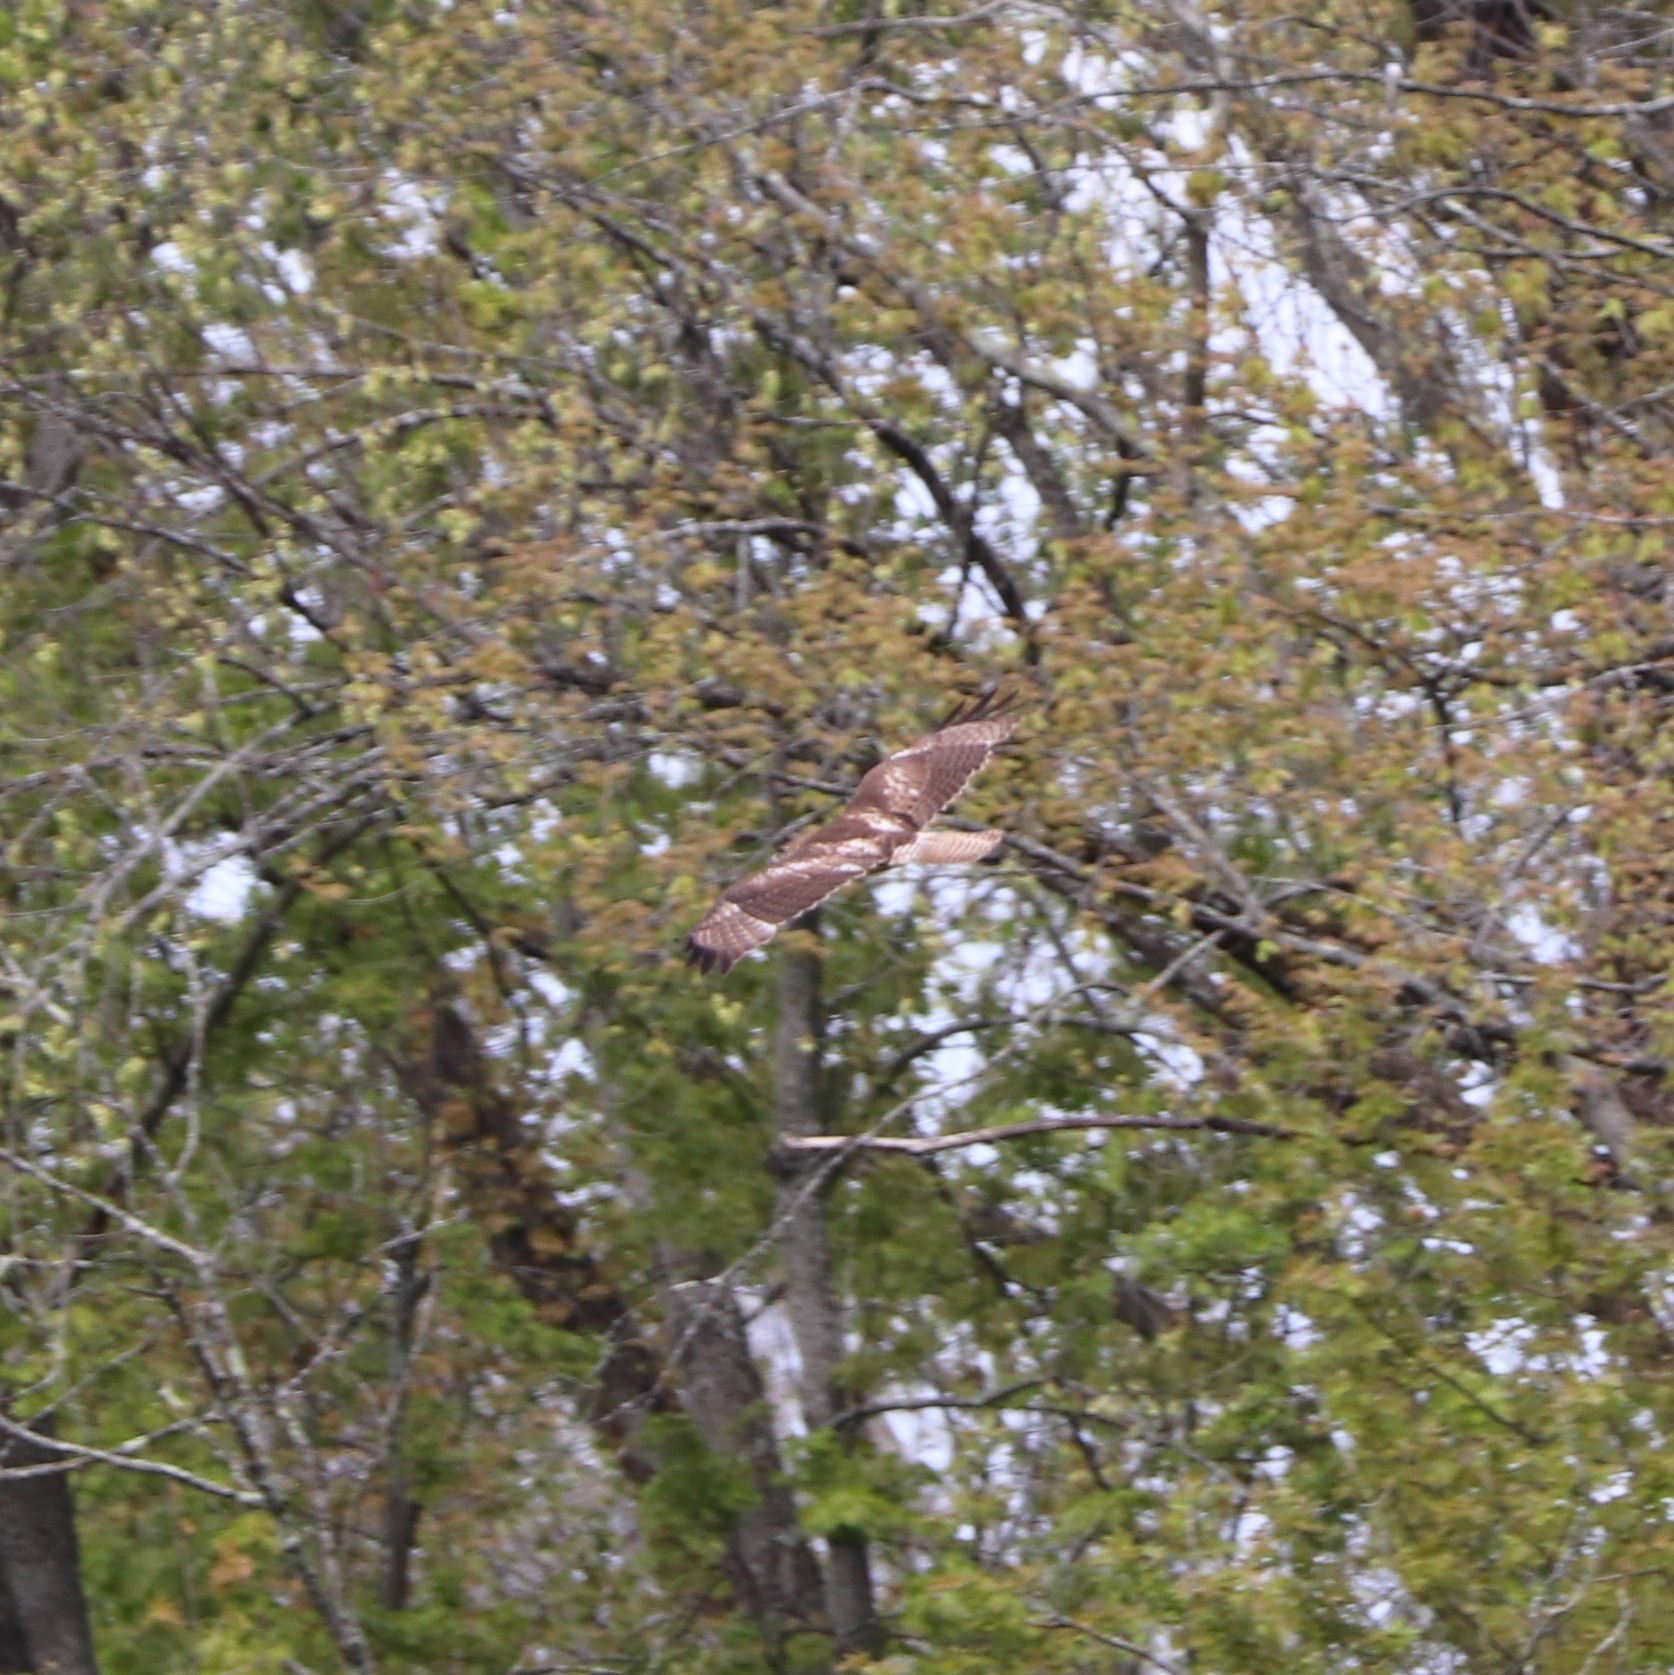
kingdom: Animalia
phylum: Chordata
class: Aves
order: Accipitriformes
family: Accipitridae
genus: Buteo
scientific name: Buteo jamaicensis
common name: Red-tailed hawk
